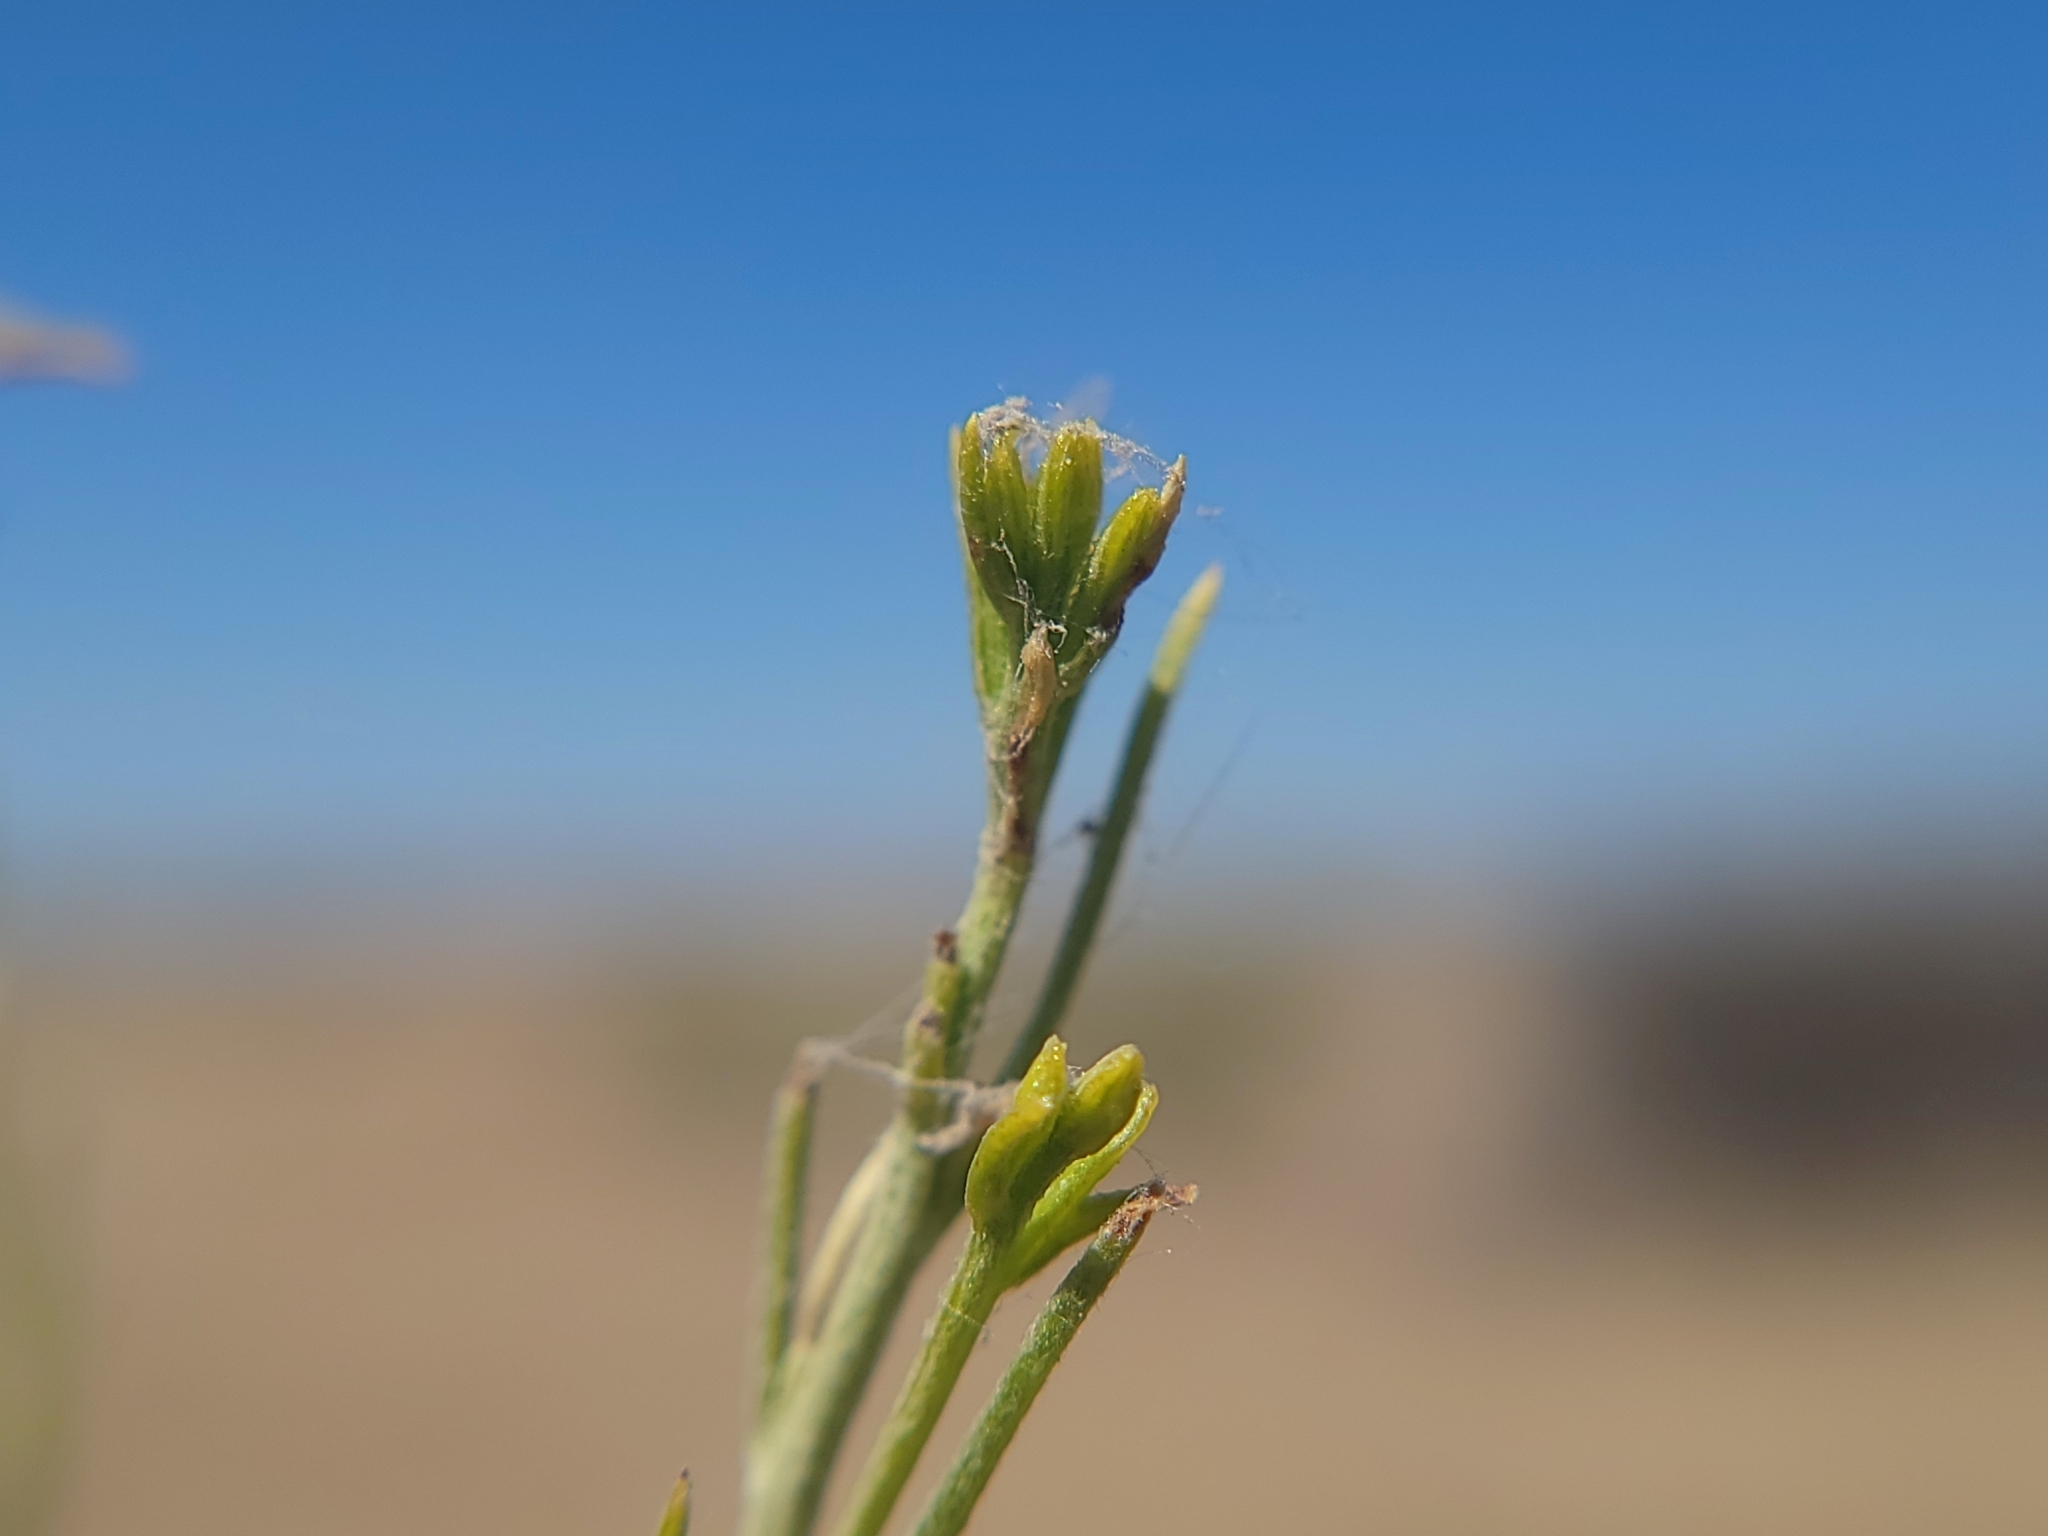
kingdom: Plantae
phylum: Tracheophyta
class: Magnoliopsida
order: Asterales
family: Asteraceae
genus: Ericameria
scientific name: Ericameria nauseosa
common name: Rubber rabbitbrush
